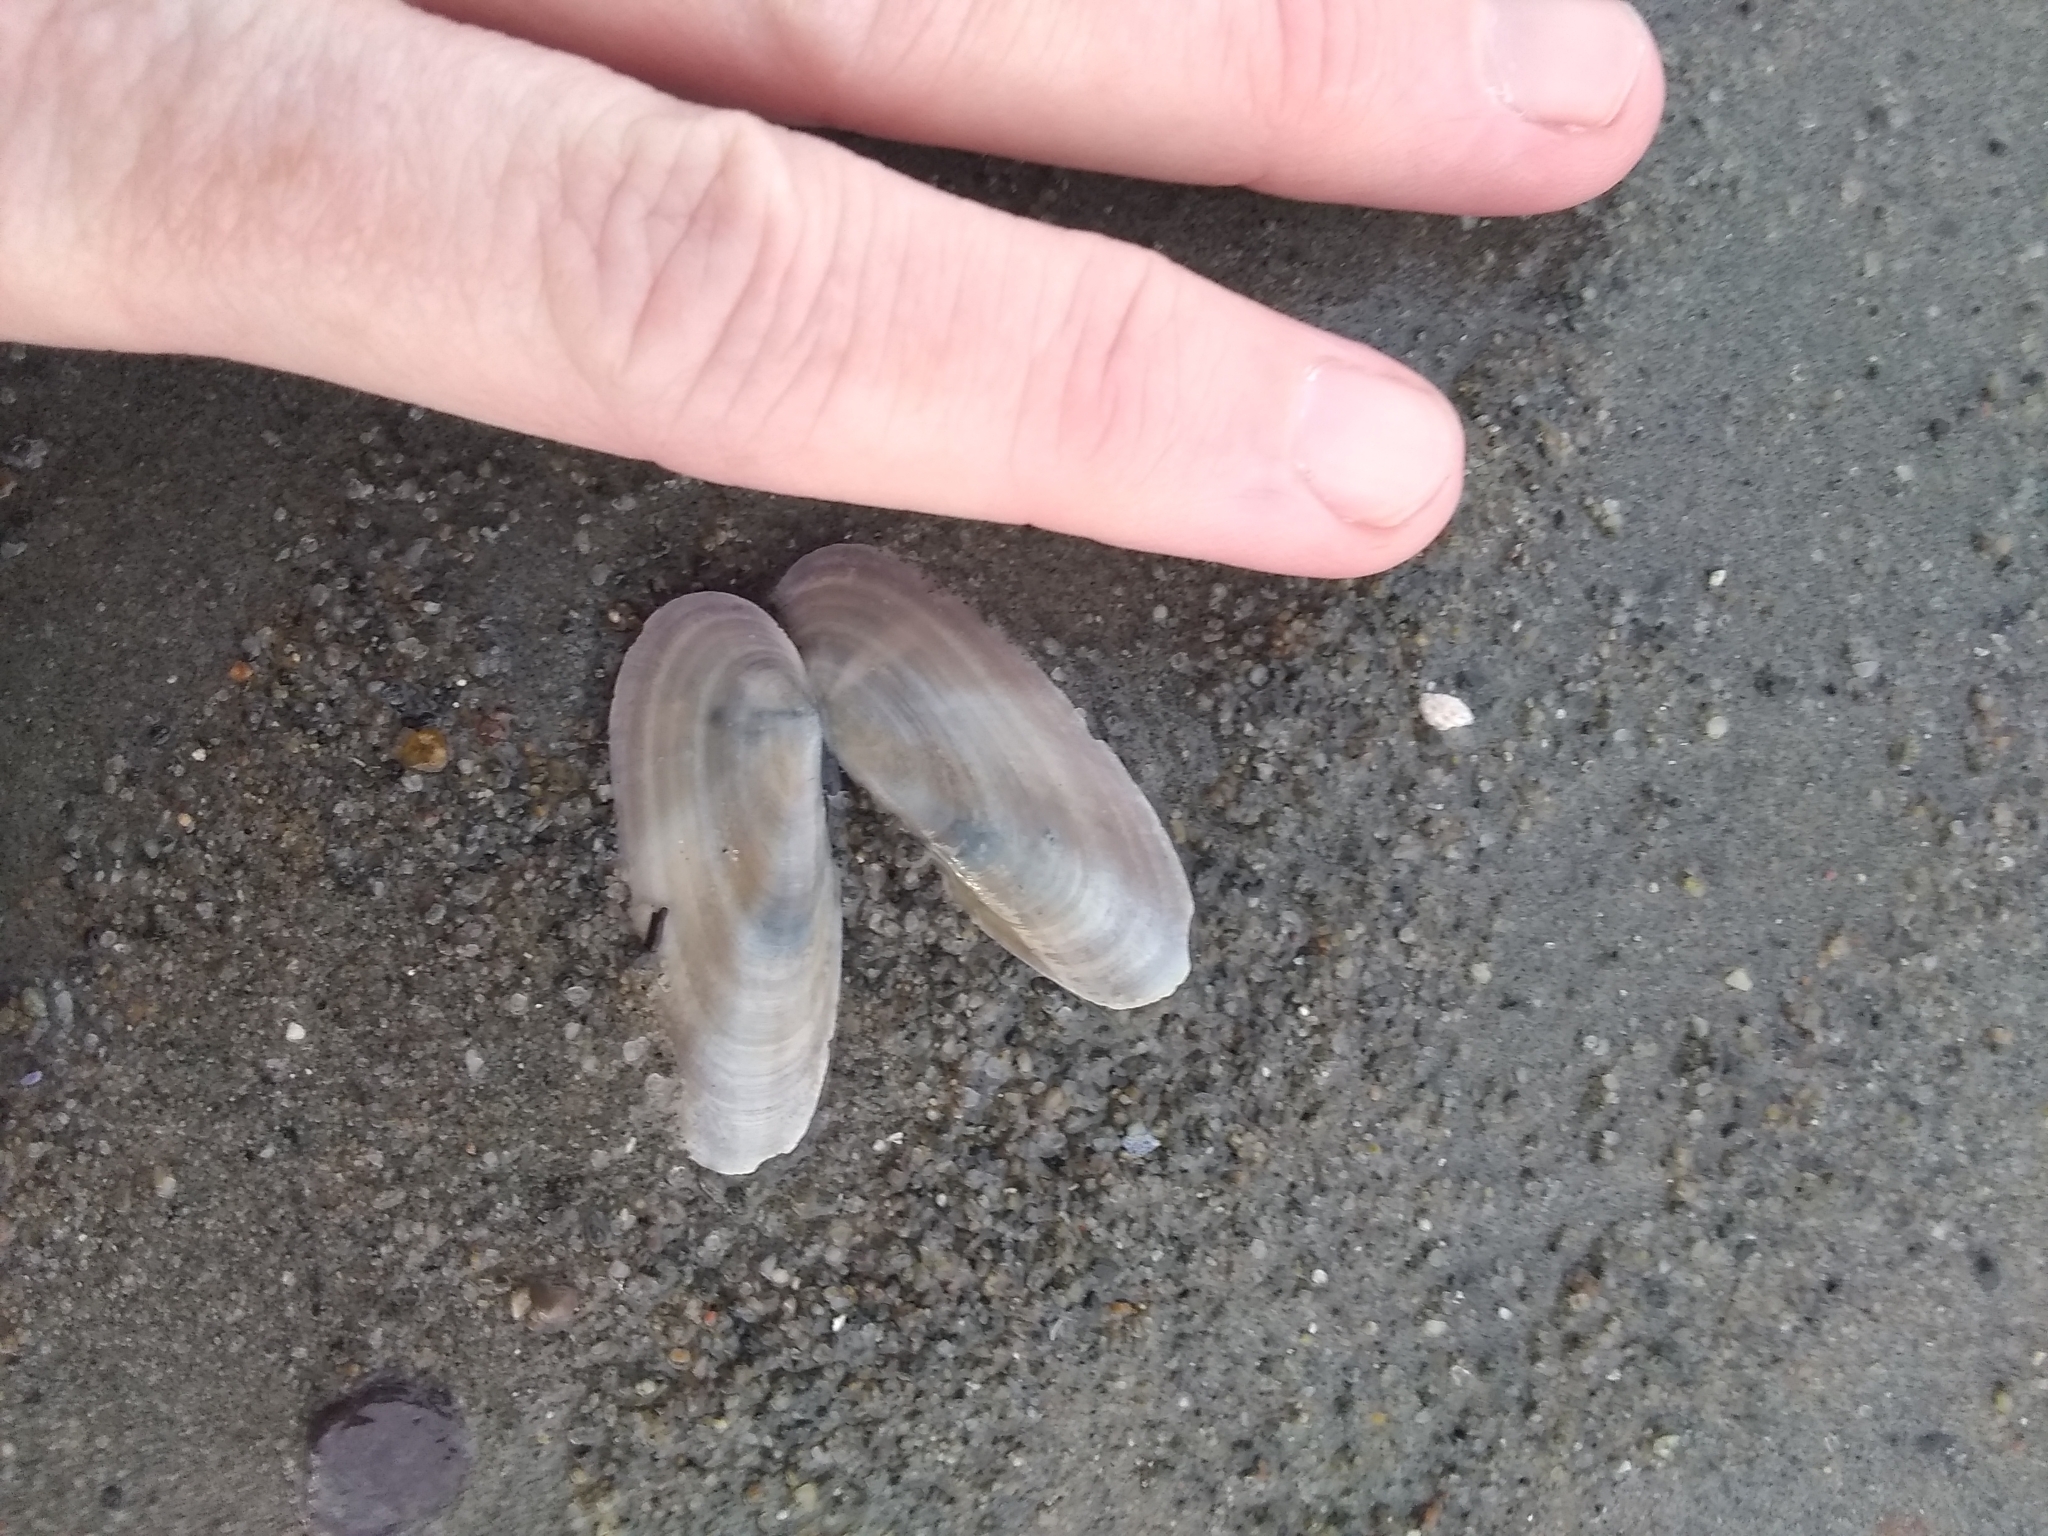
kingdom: Animalia
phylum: Mollusca
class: Bivalvia
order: Adapedonta
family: Pharidae
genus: Siliqua
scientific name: Siliqua costata
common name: Atlantic razor
